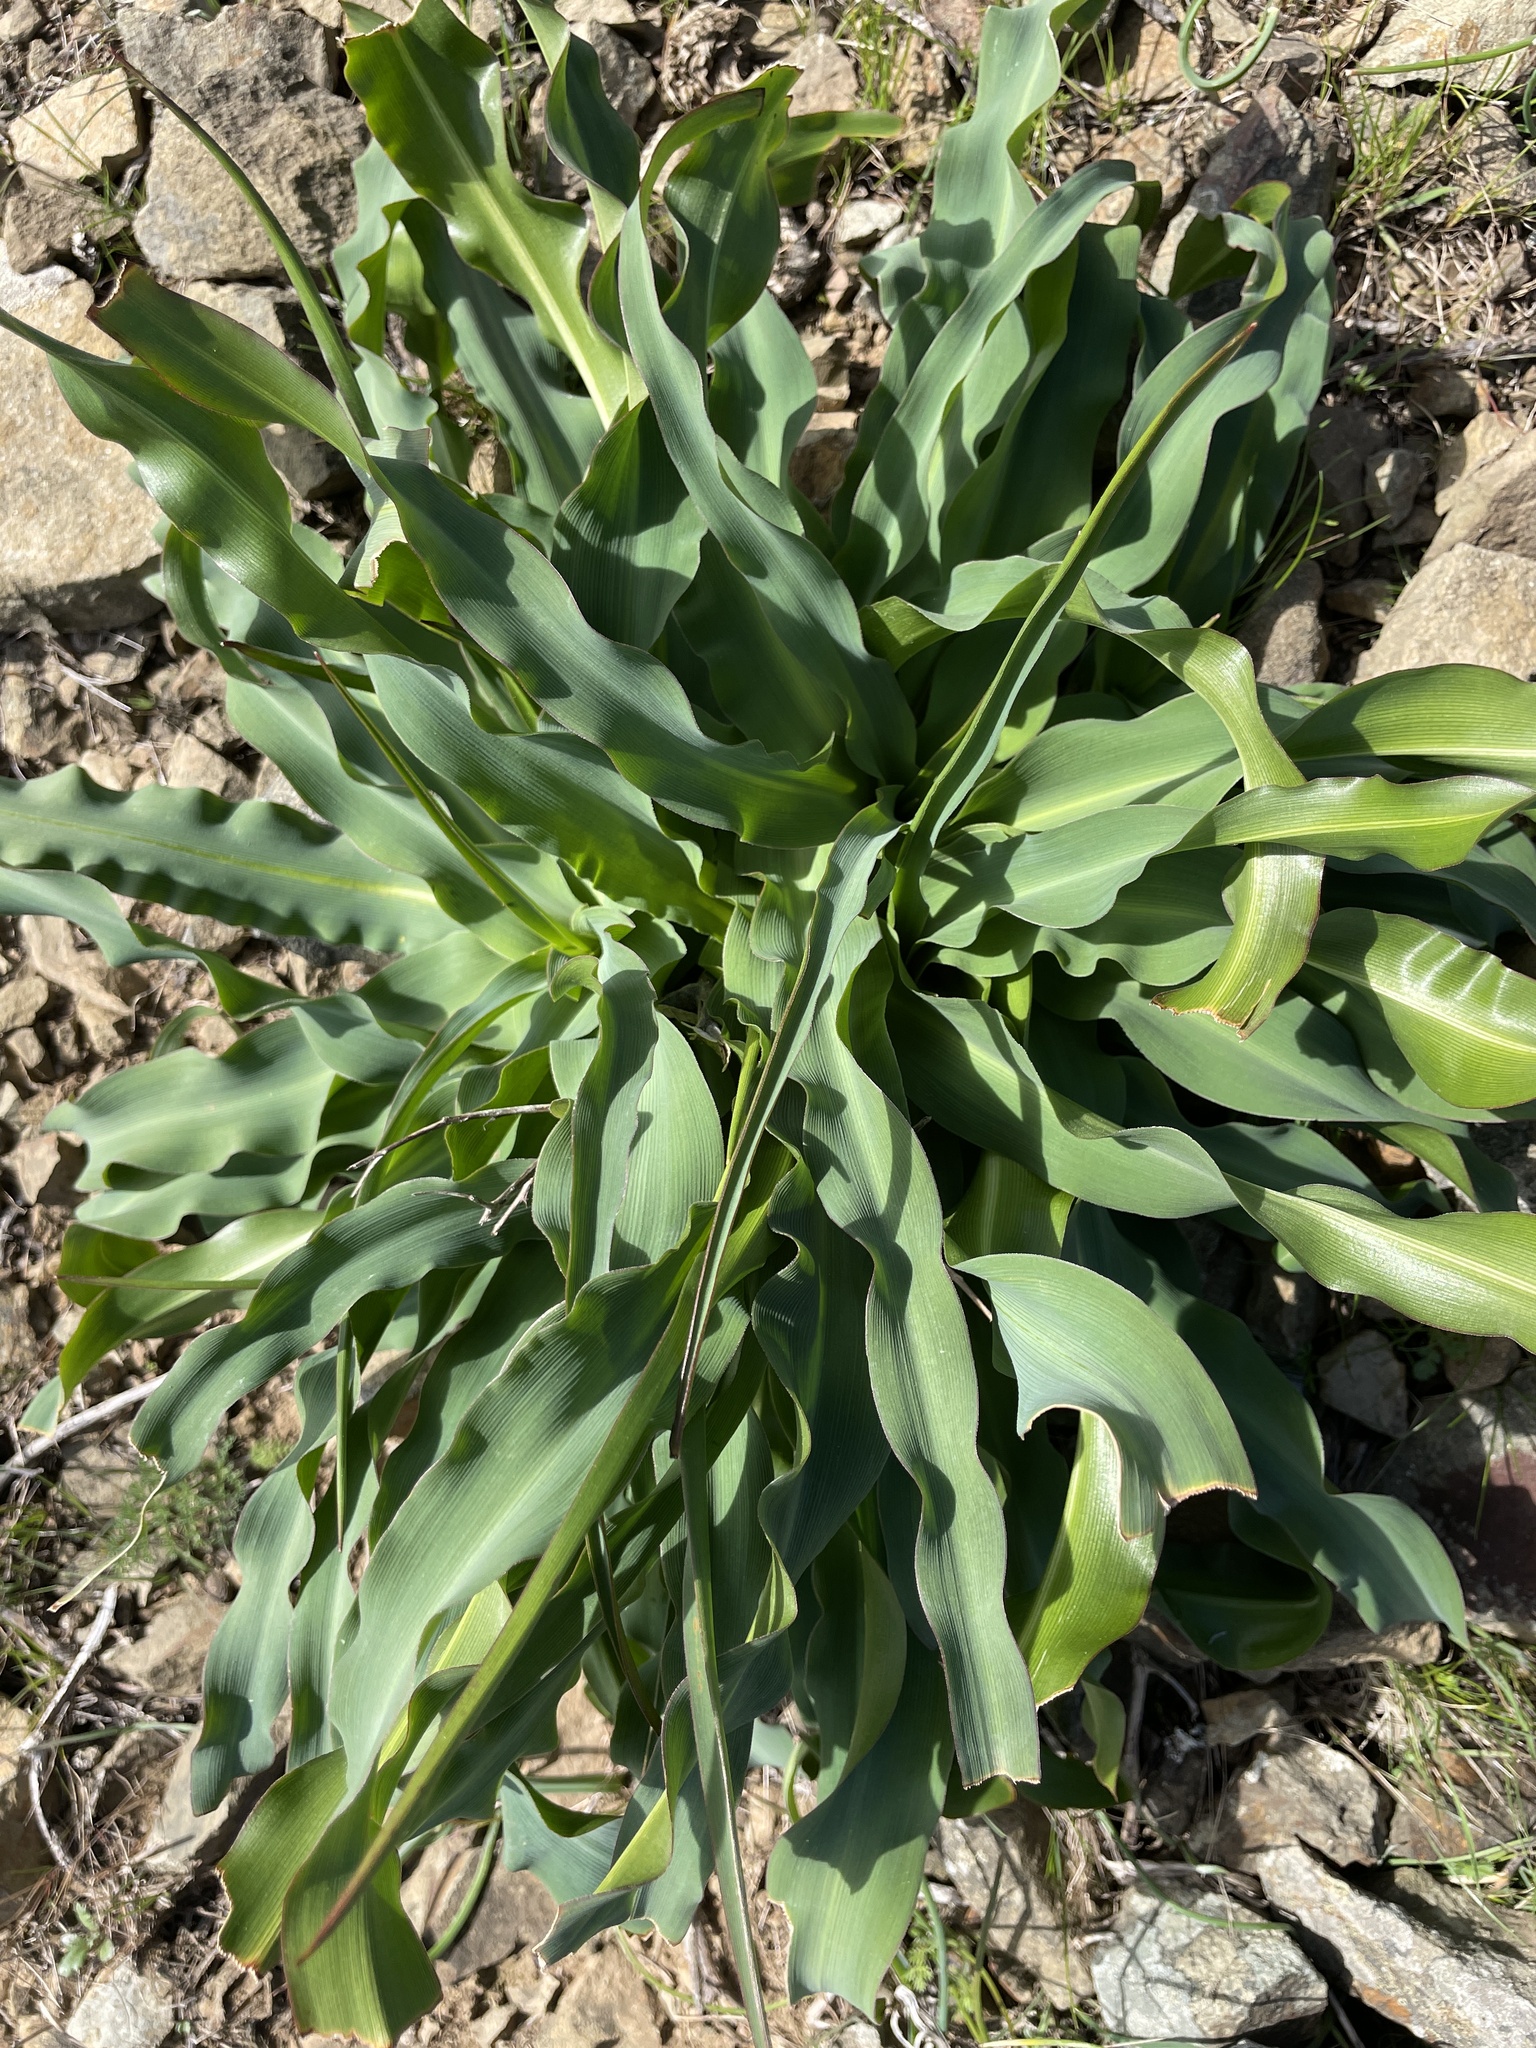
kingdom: Plantae
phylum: Tracheophyta
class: Liliopsida
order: Asparagales
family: Asparagaceae
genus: Chlorogalum
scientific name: Chlorogalum pomeridianum
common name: Amole
